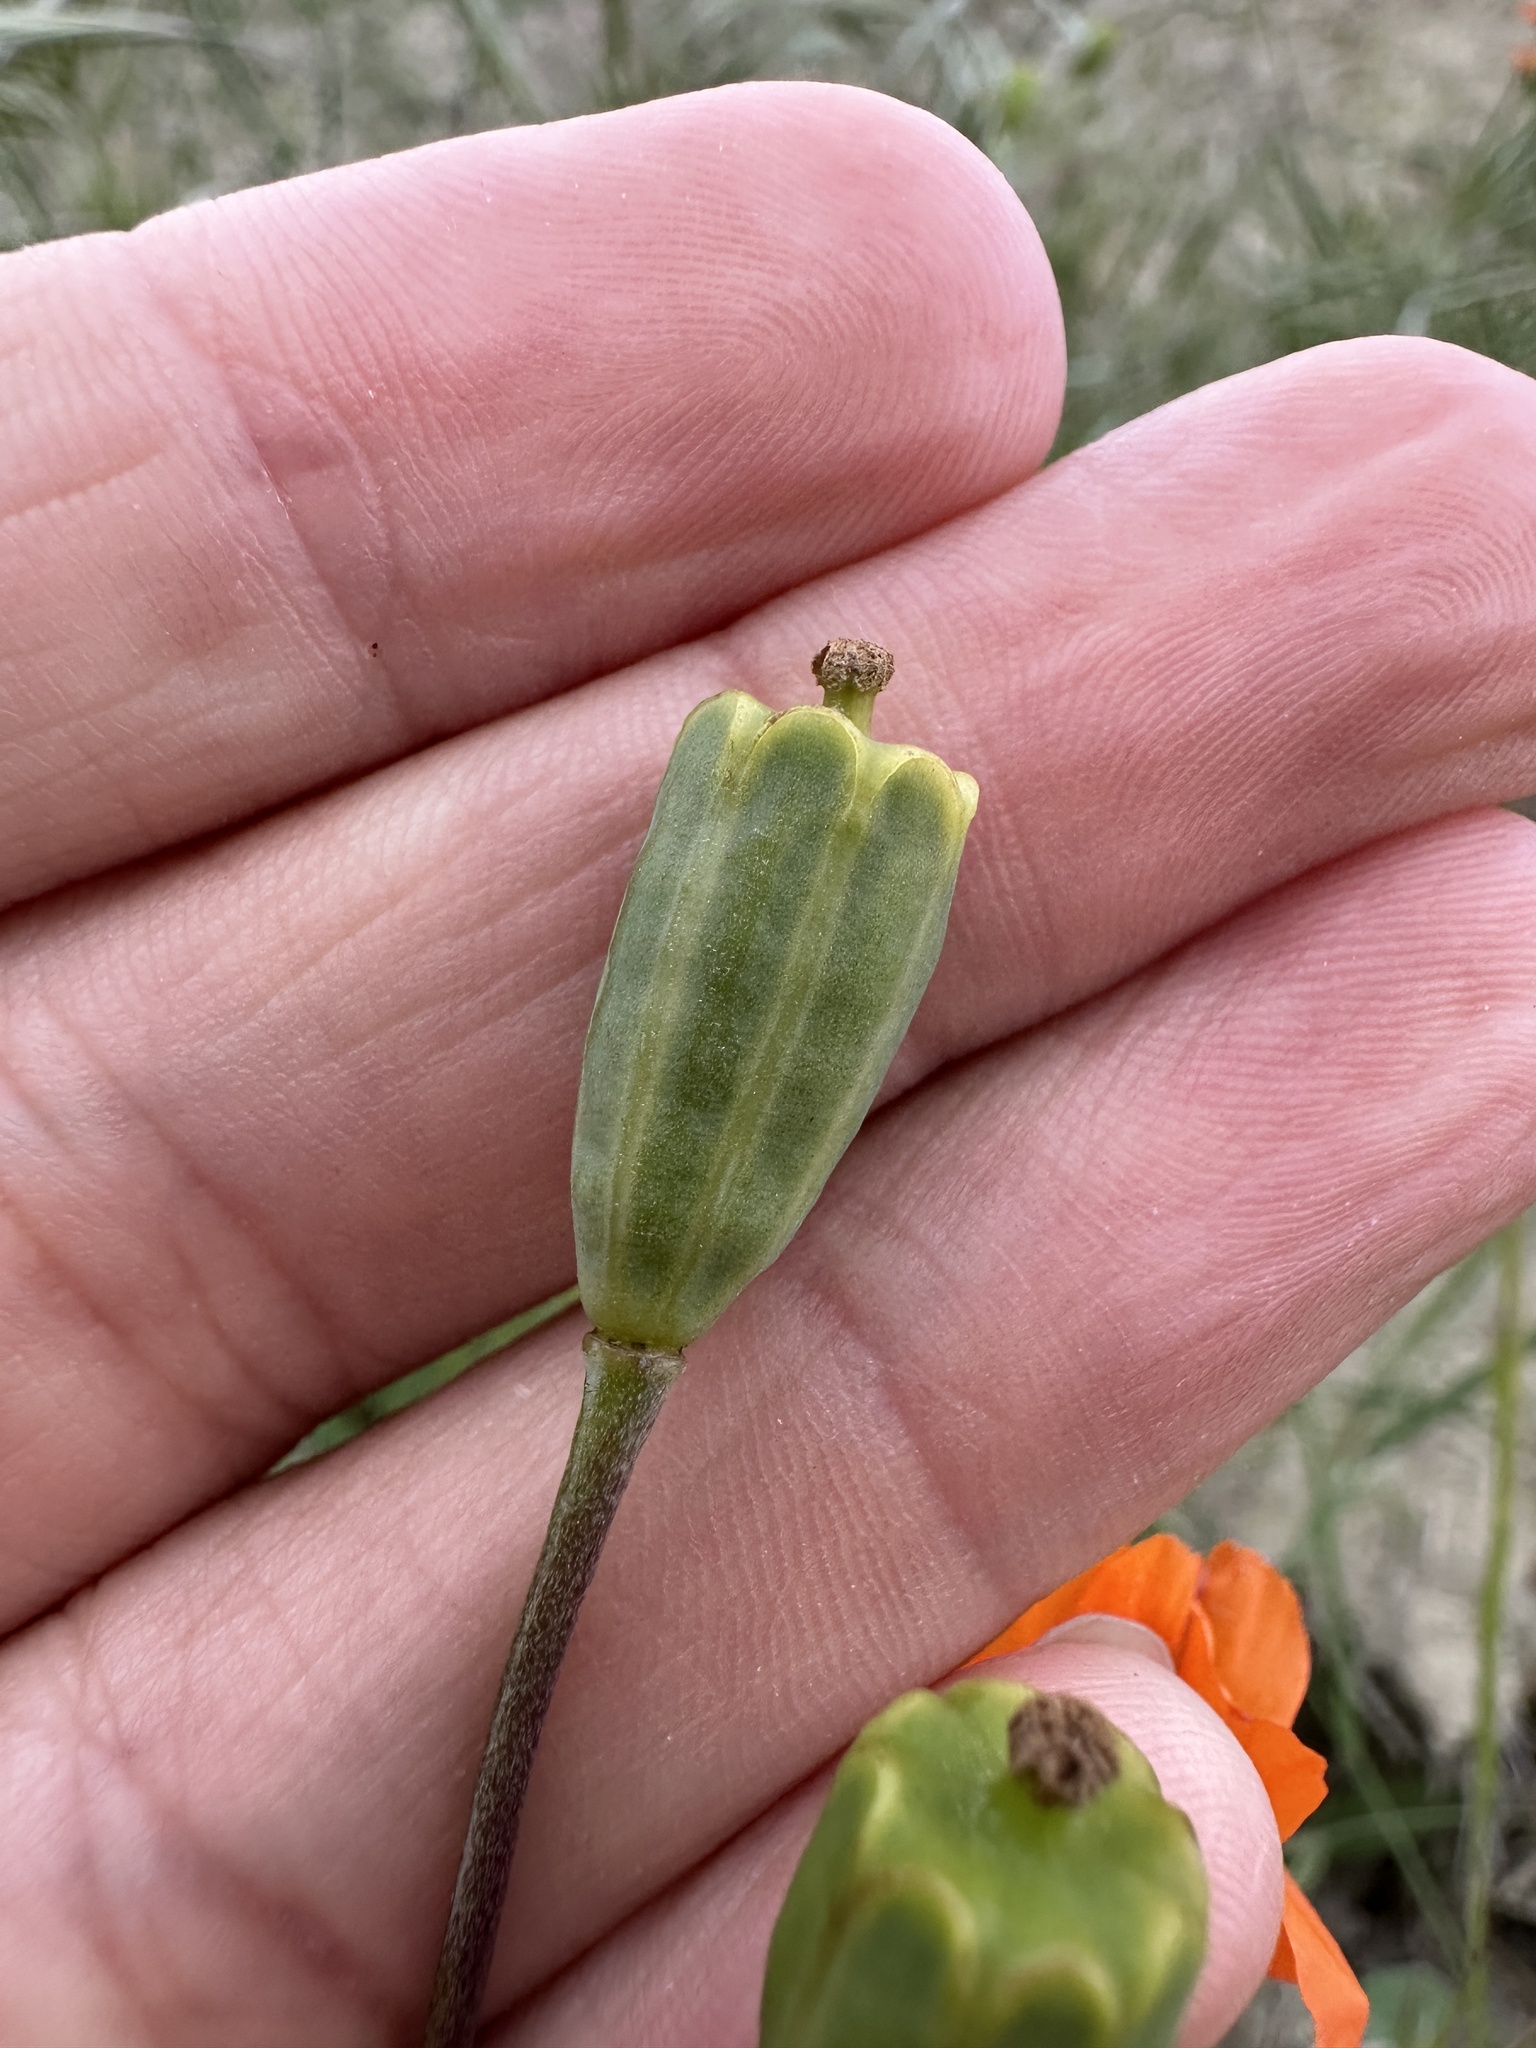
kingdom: Plantae
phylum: Tracheophyta
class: Magnoliopsida
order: Ranunculales
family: Papaveraceae
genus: Stylomecon
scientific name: Stylomecon heterophylla
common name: Flaming-poppy
